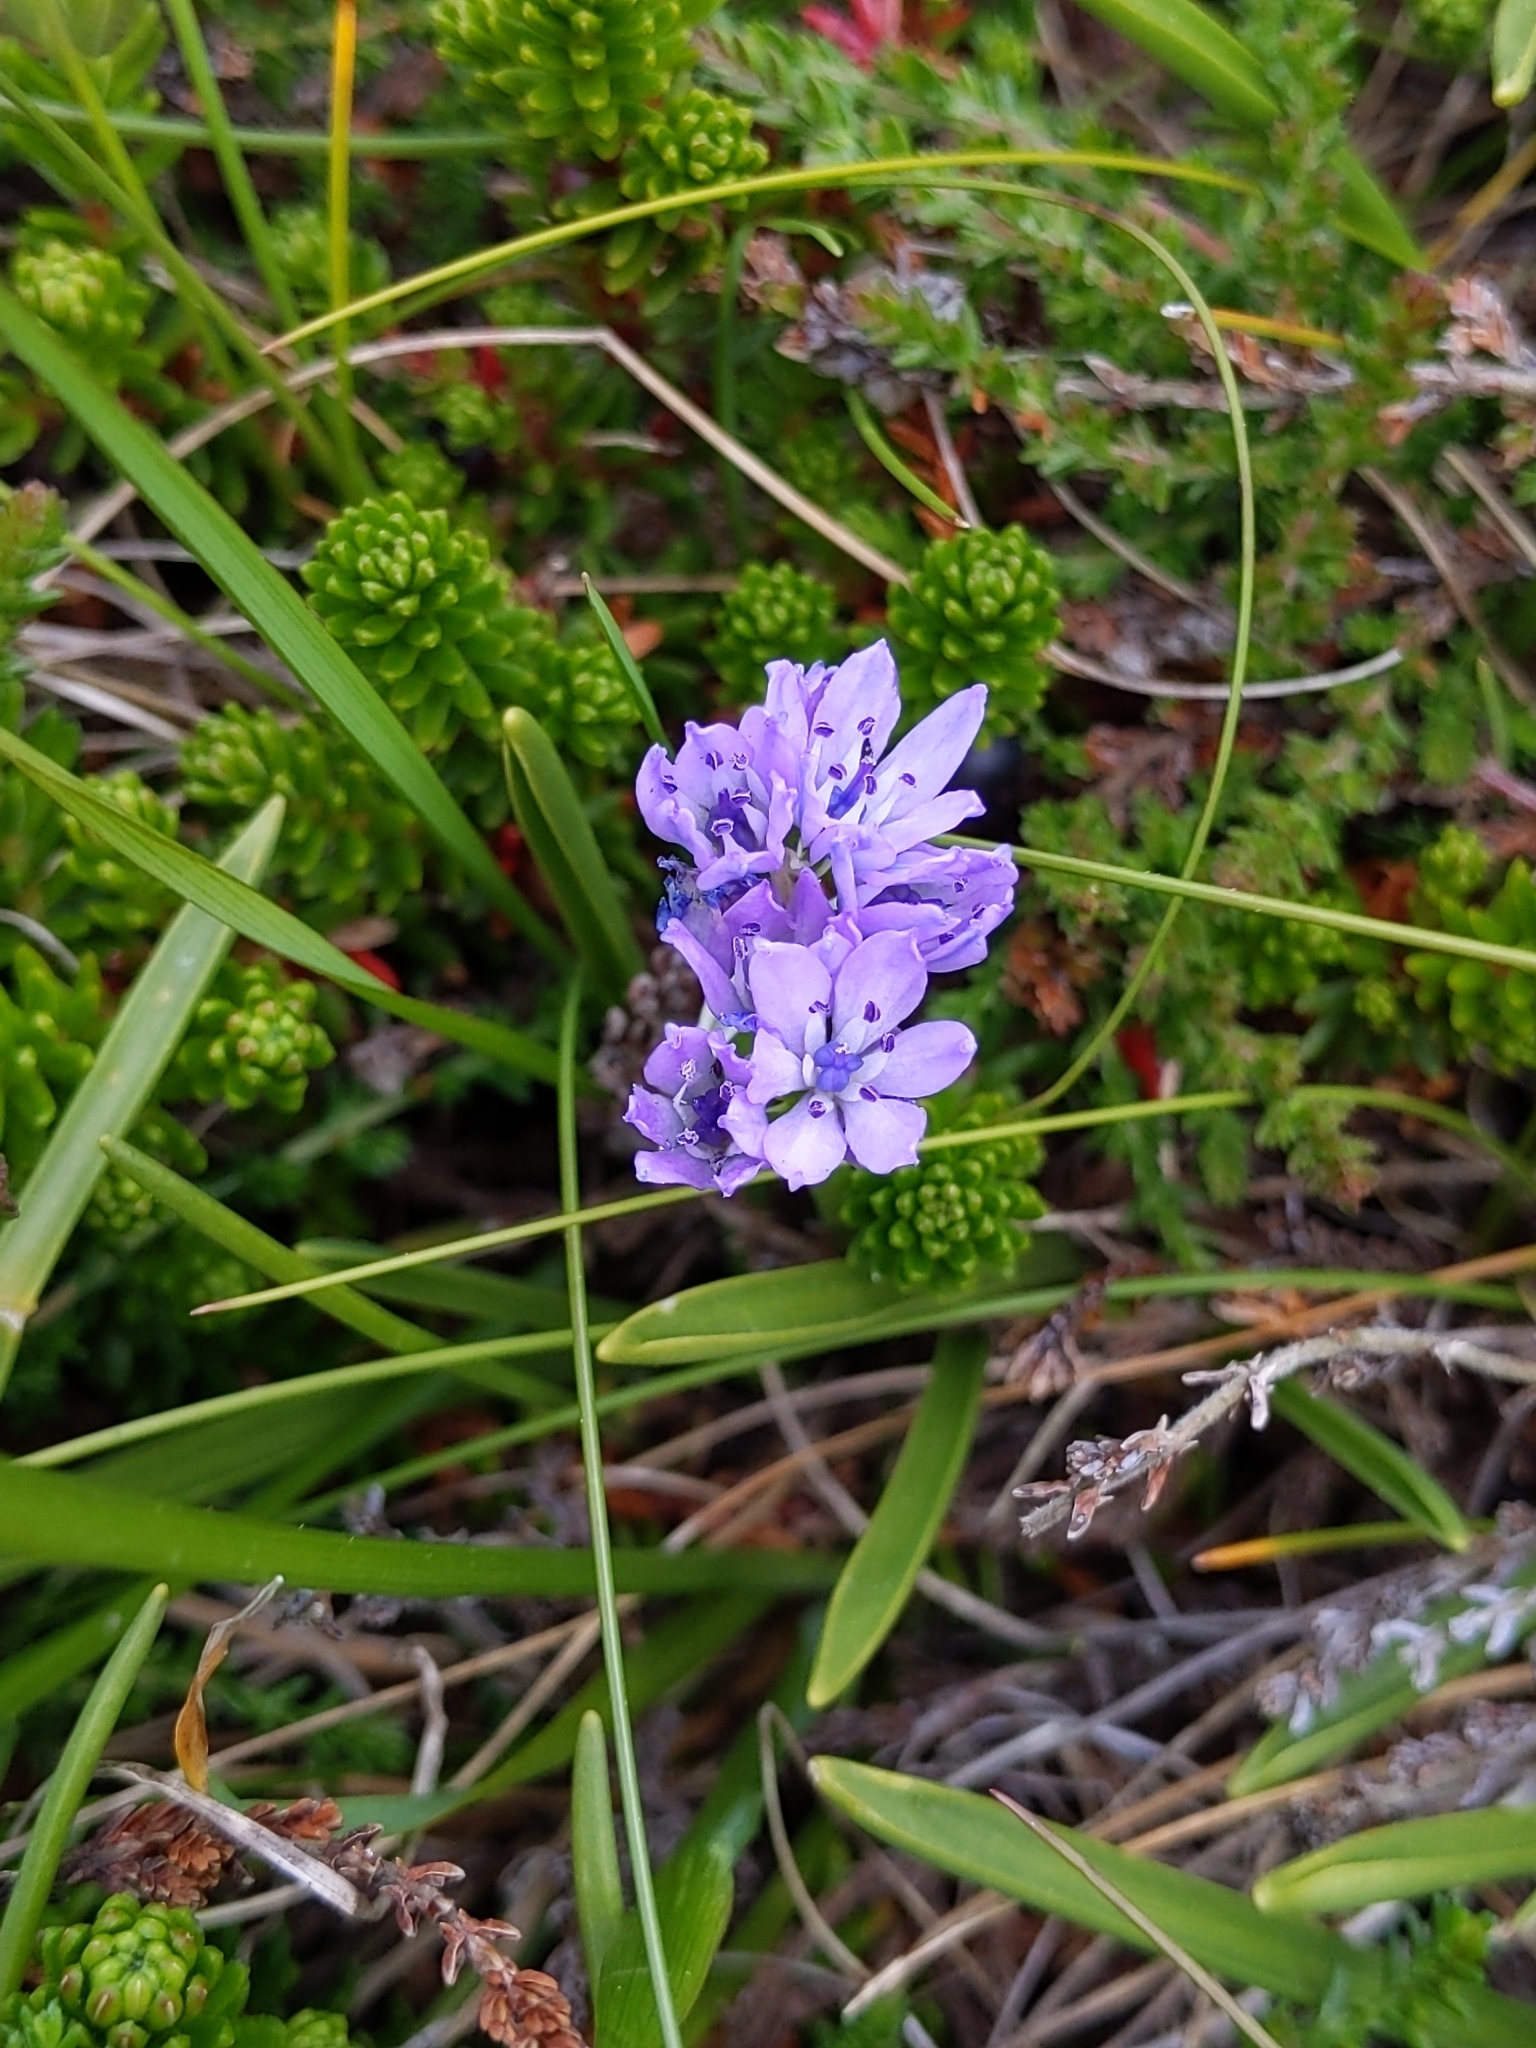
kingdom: Plantae
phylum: Tracheophyta
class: Liliopsida
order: Asparagales
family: Asparagaceae
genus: Scilla
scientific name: Scilla verna
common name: Spring squill
